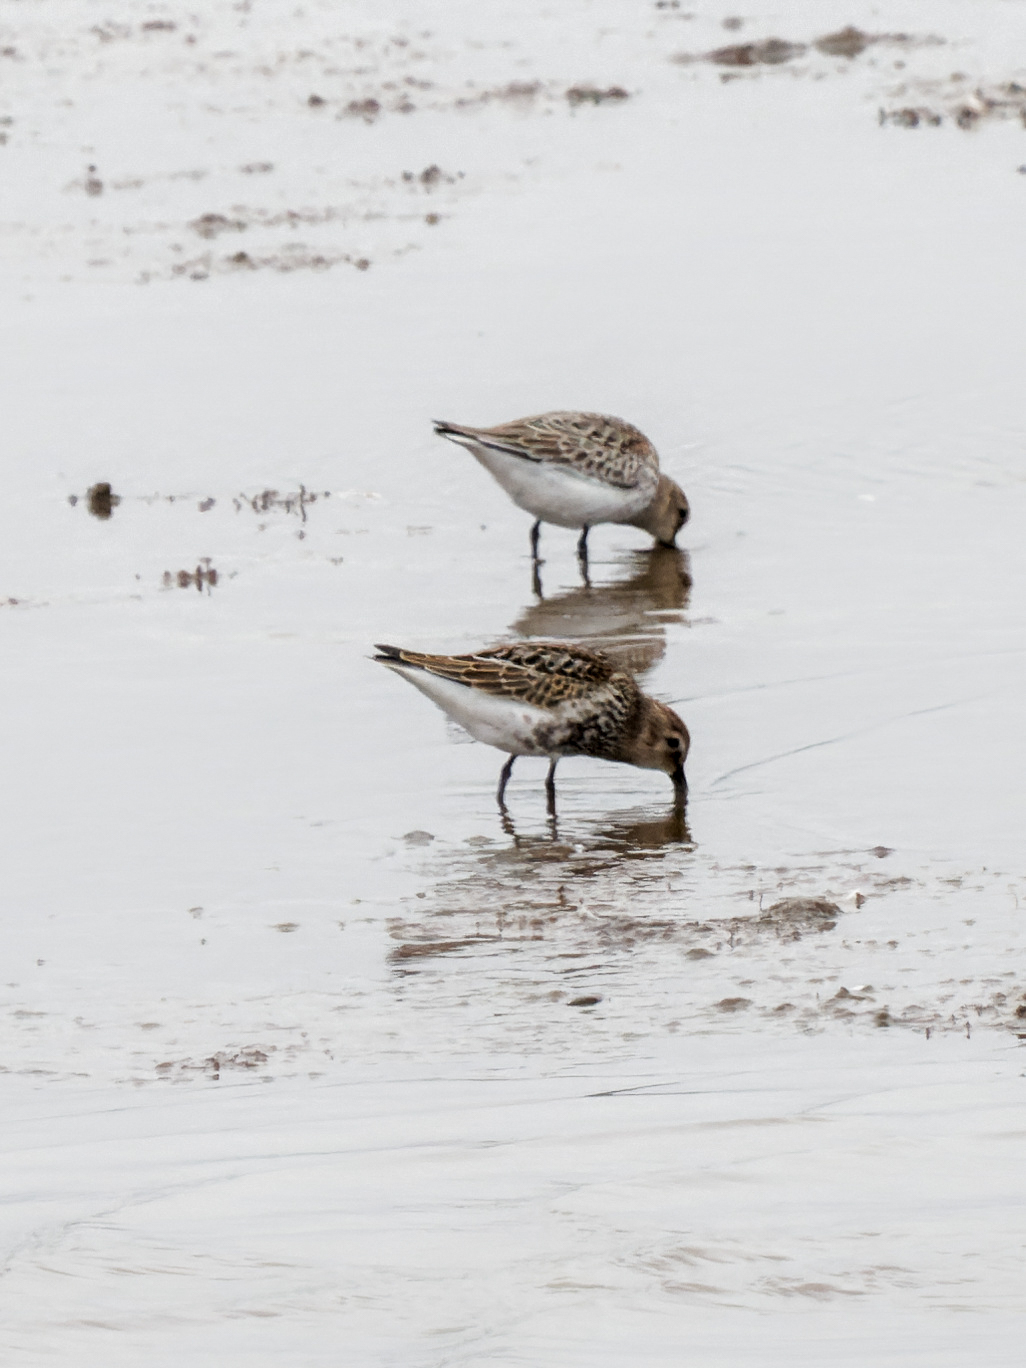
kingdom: Animalia
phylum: Chordata
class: Aves
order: Charadriiformes
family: Scolopacidae
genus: Calidris
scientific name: Calidris alpina
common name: Dunlin
